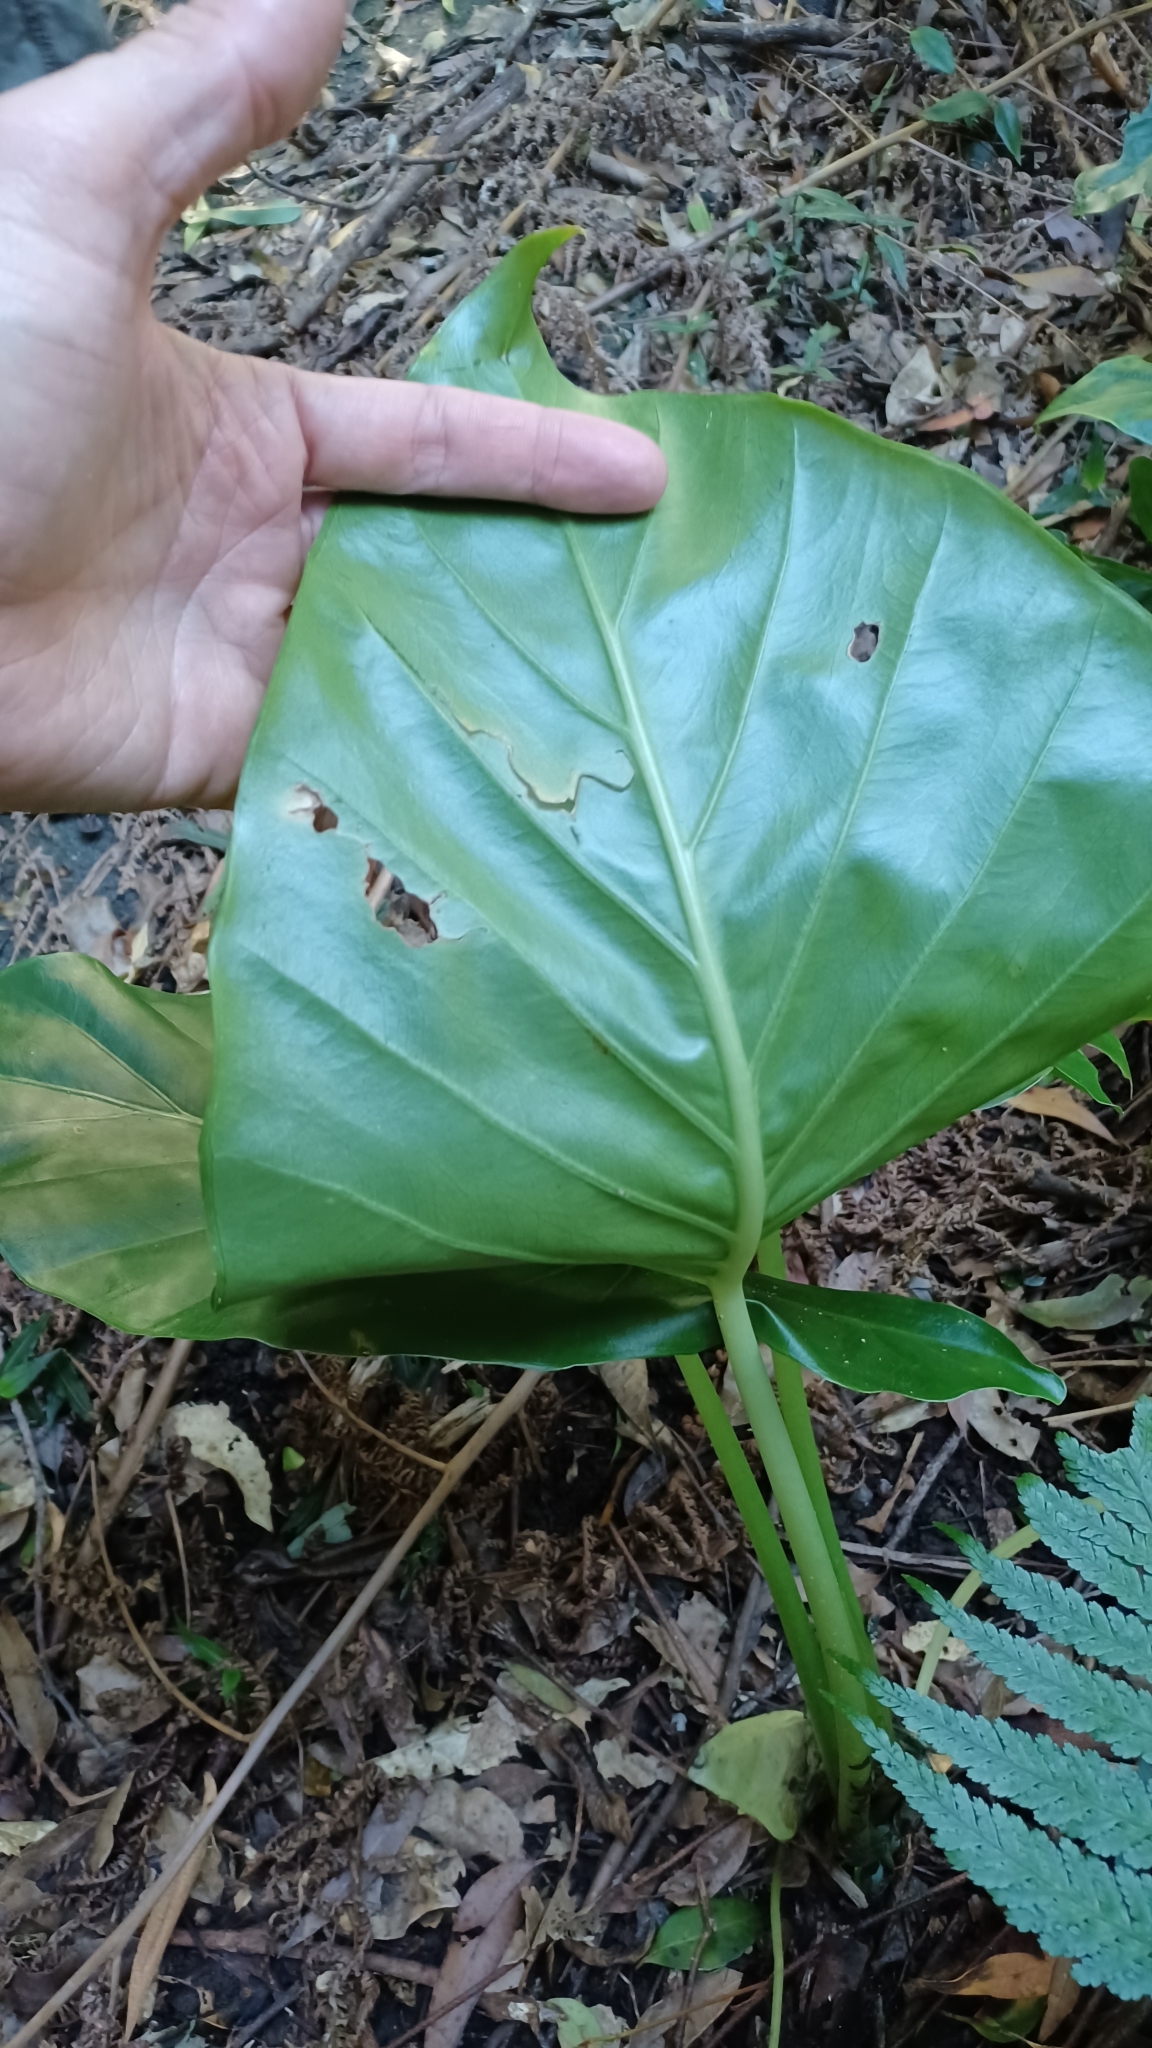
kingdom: Plantae
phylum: Tracheophyta
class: Liliopsida
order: Alismatales
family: Araceae
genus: Alocasia
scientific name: Alocasia brisbanensis
